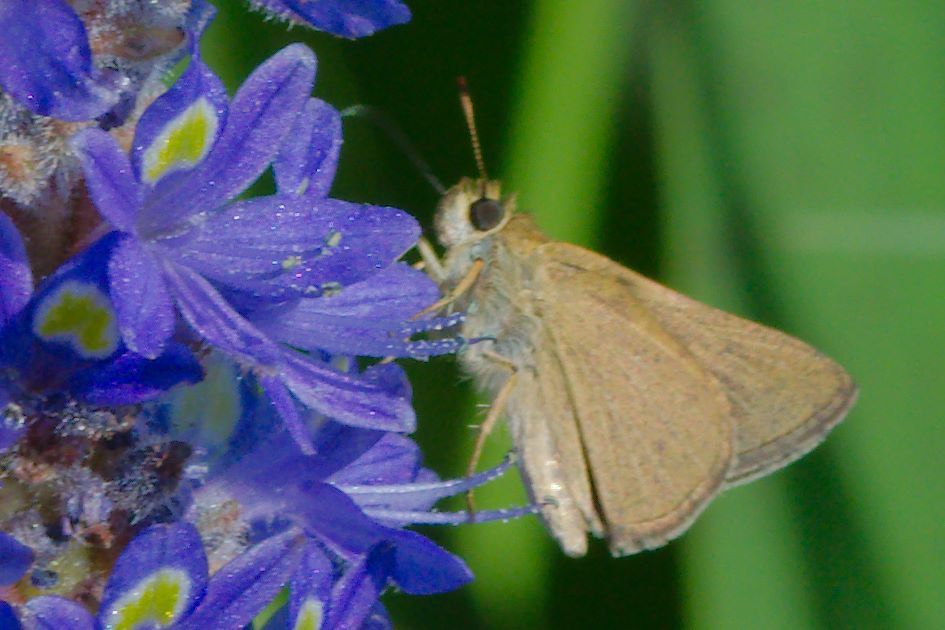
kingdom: Animalia
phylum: Arthropoda
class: Insecta
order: Lepidoptera
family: Hesperiidae
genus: Nastra
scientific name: Nastra lherminier
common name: Swarthy skipper
